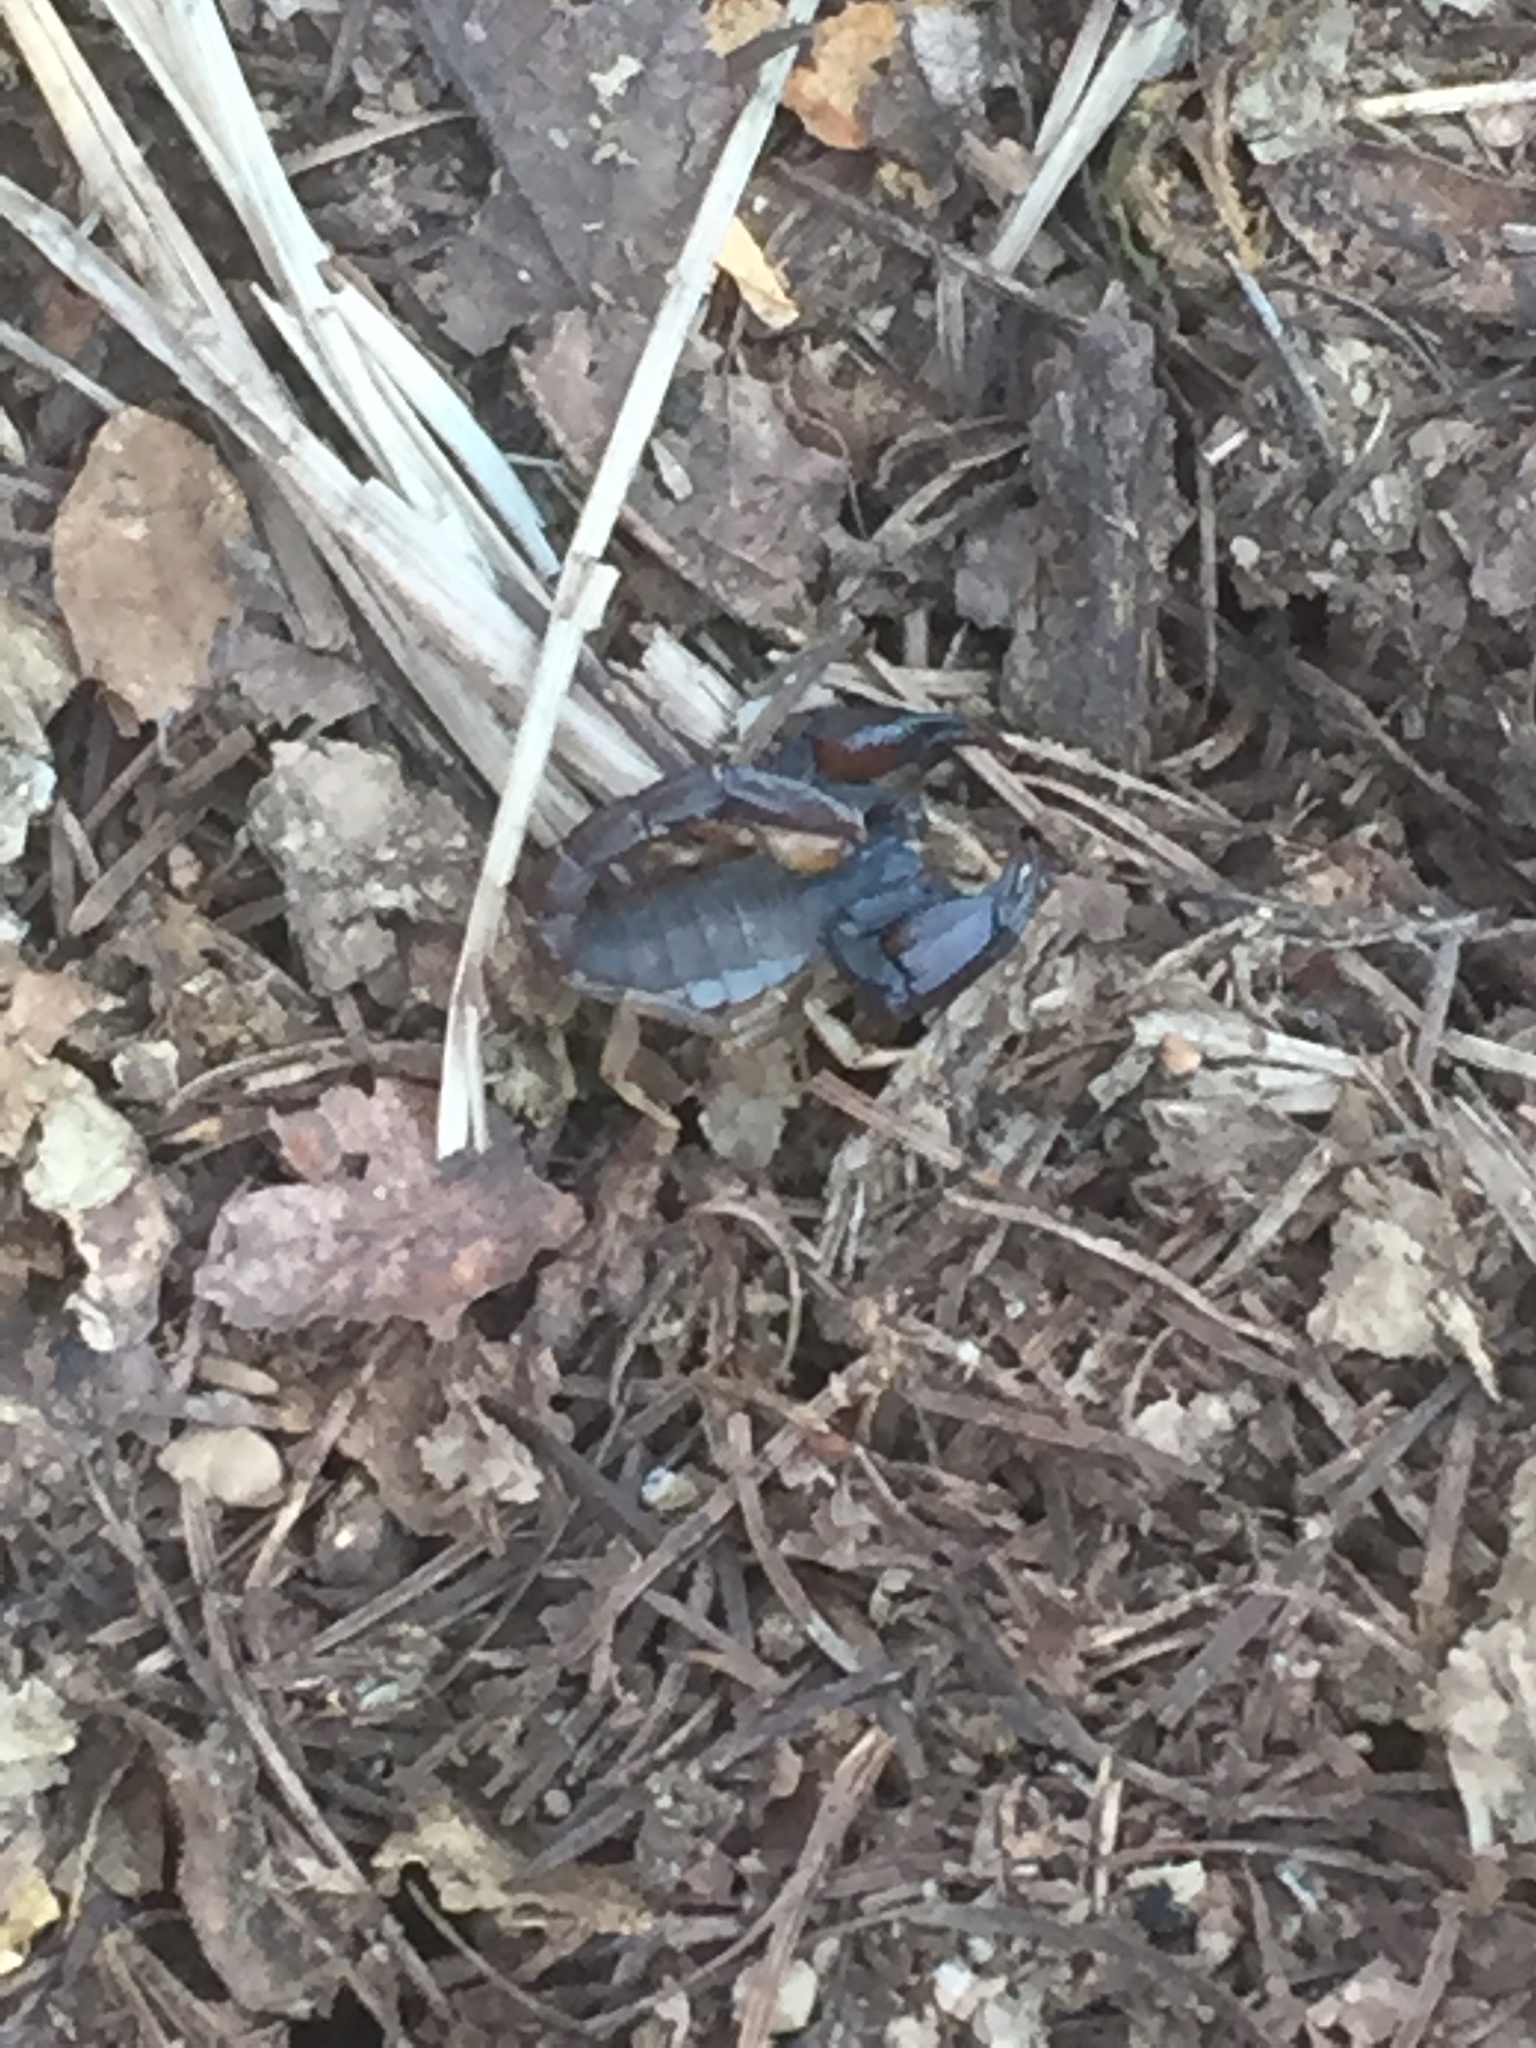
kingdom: Animalia
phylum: Arthropoda
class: Arachnida
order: Scorpiones
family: Chactidae
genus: Uroctonus
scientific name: Uroctonus mordax
